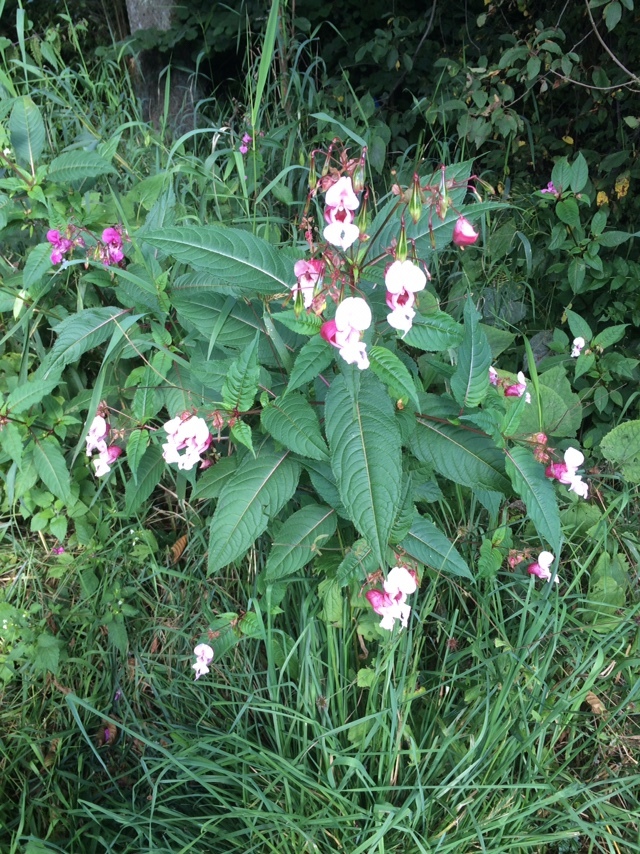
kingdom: Plantae
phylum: Tracheophyta
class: Magnoliopsida
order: Ericales
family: Balsaminaceae
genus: Impatiens
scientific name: Impatiens glandulifera
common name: Himalayan balsam
